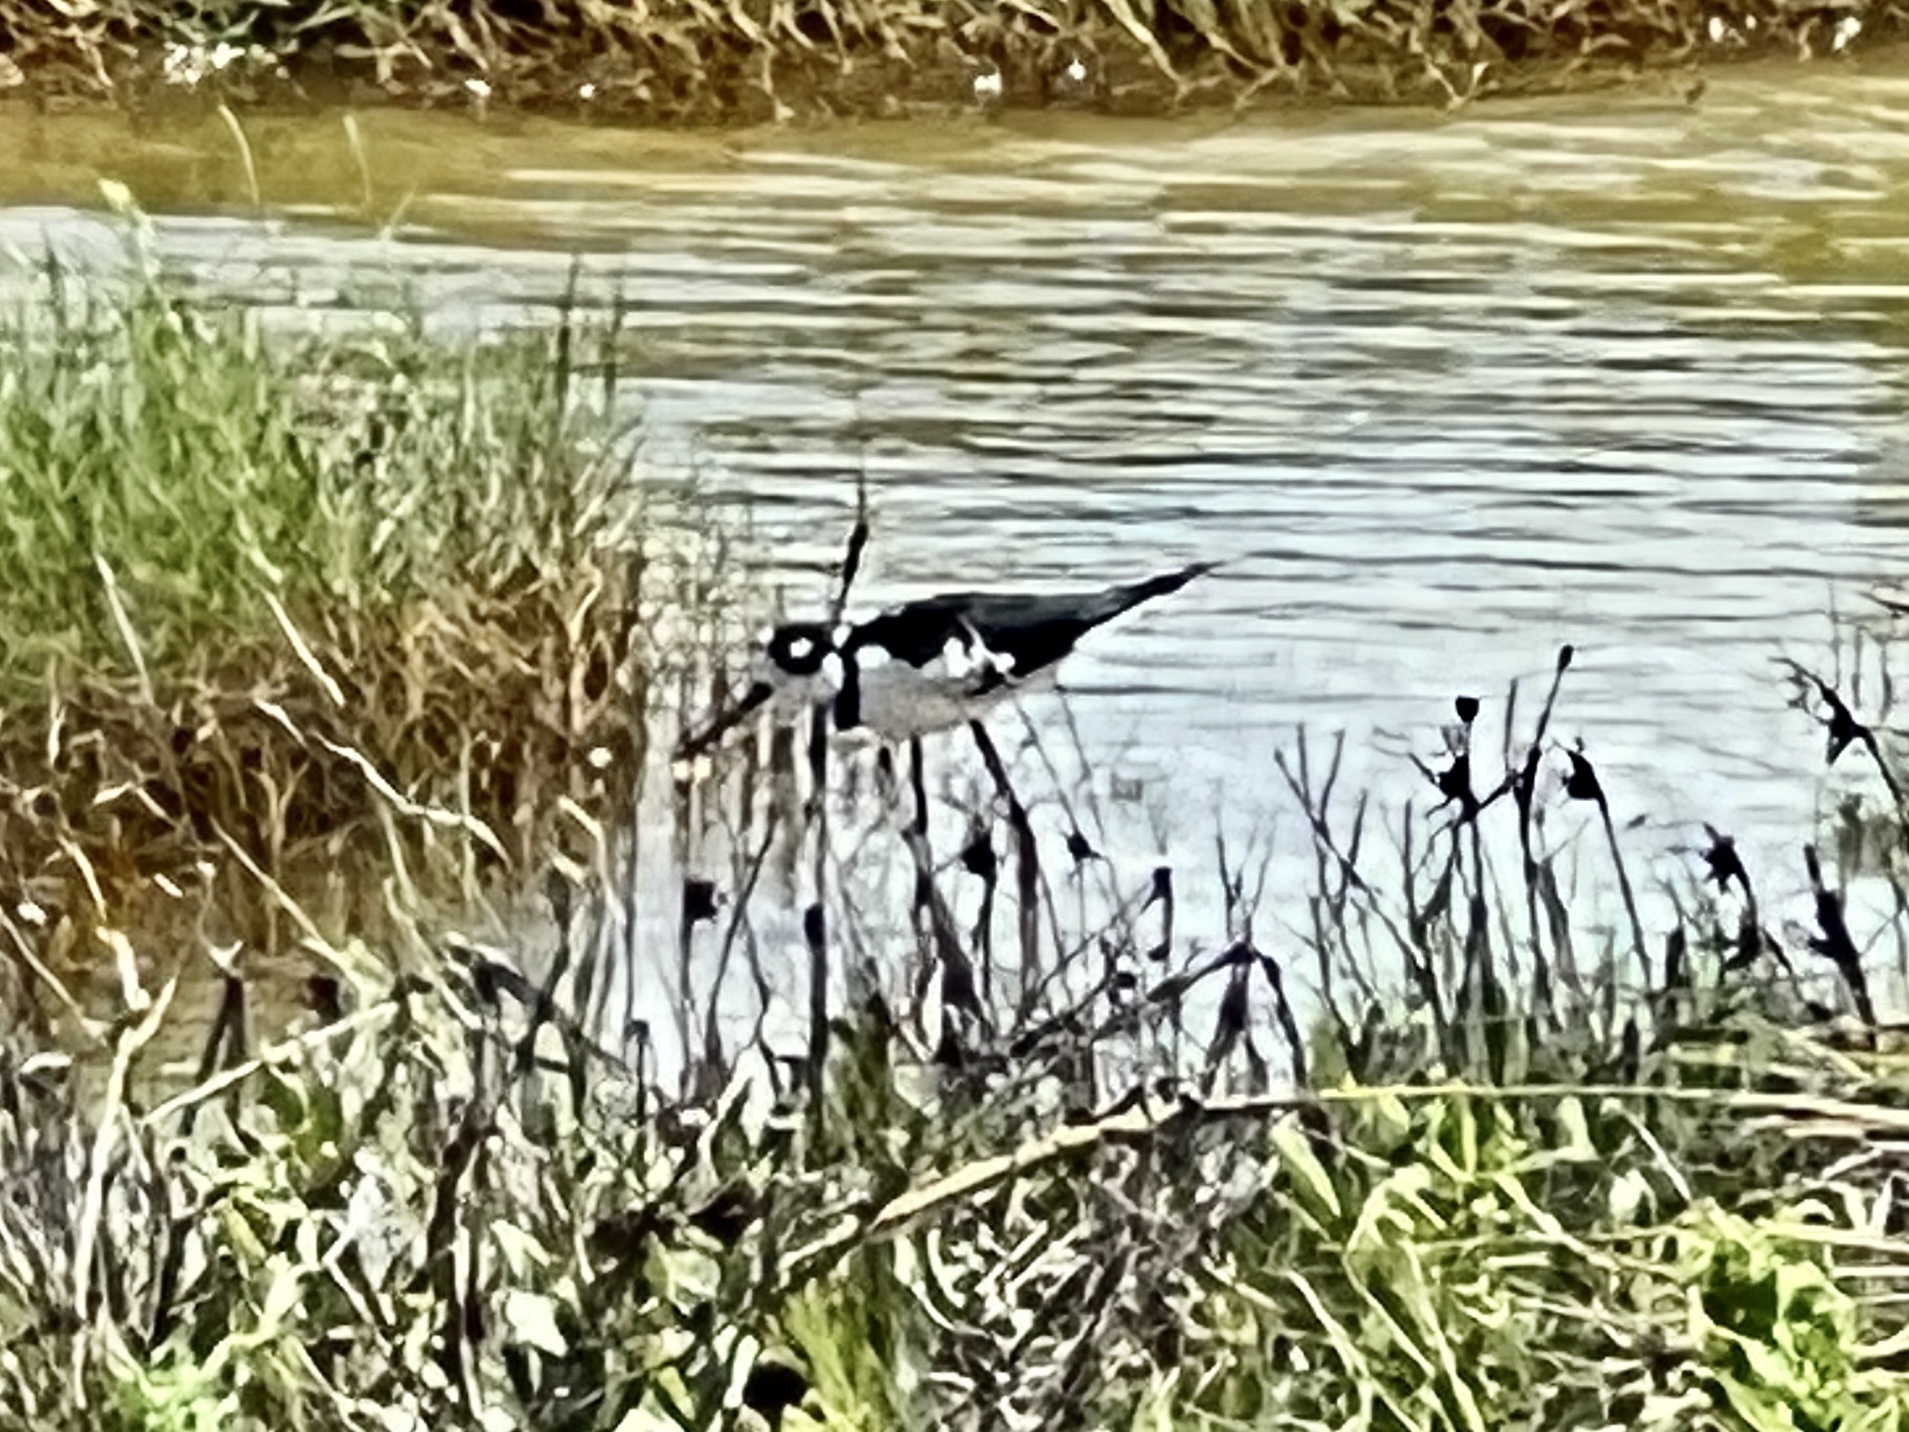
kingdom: Animalia
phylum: Chordata
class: Aves
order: Charadriiformes
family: Recurvirostridae
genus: Himantopus
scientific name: Himantopus mexicanus
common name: Black-necked stilt
